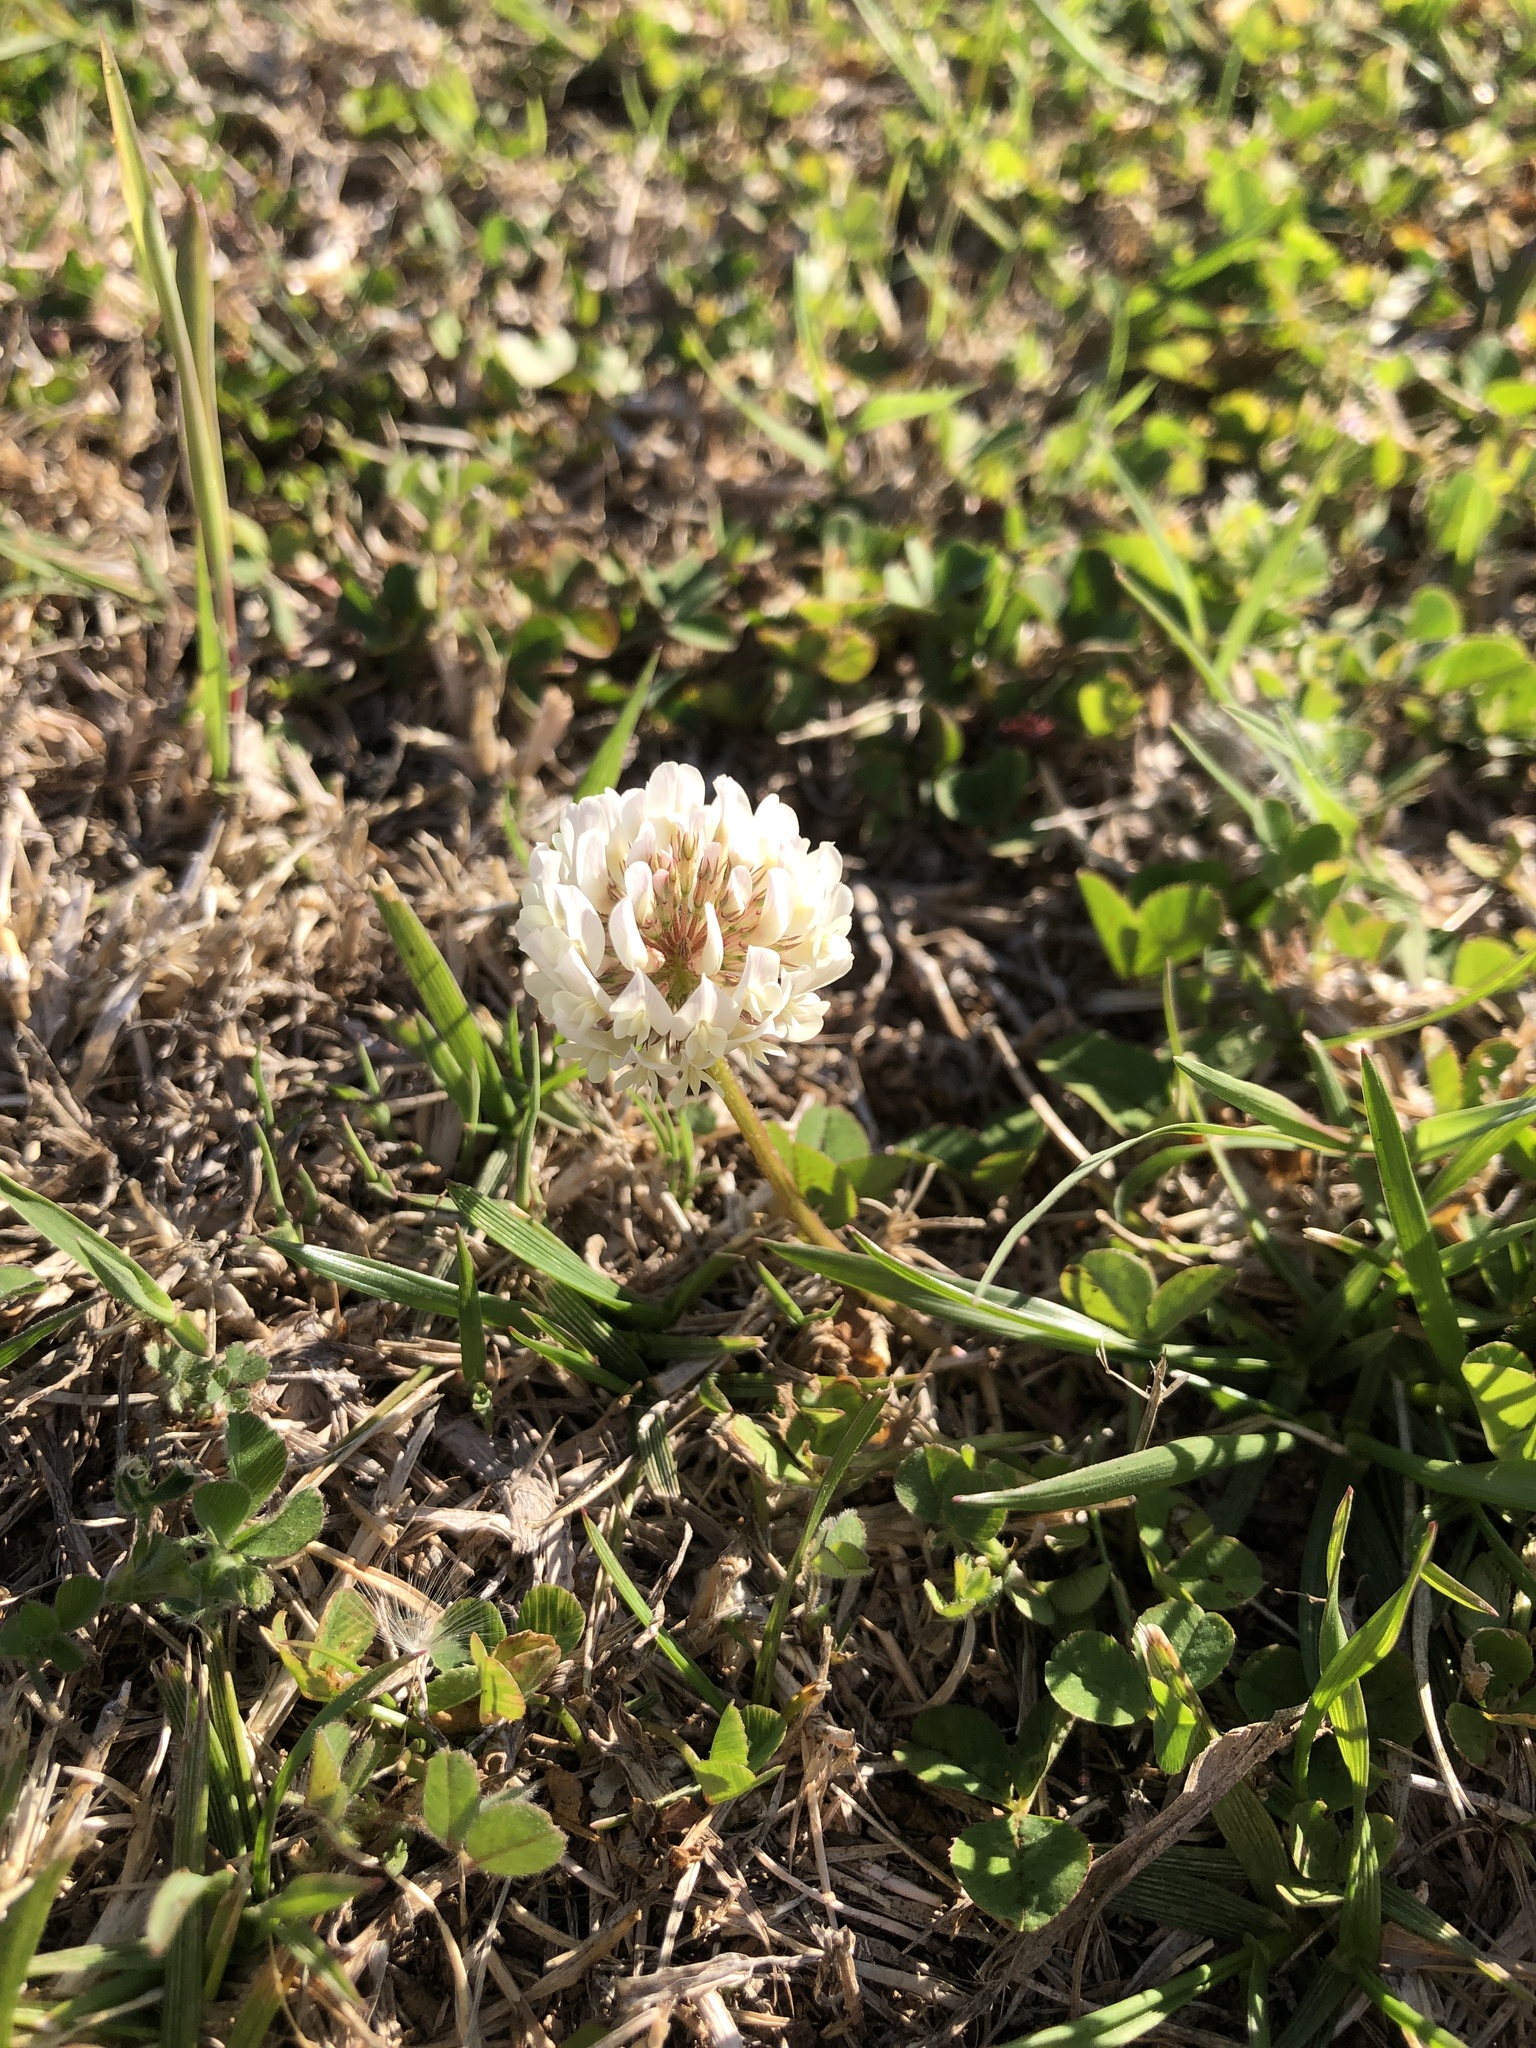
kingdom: Plantae
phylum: Tracheophyta
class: Magnoliopsida
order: Fabales
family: Fabaceae
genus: Trifolium
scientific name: Trifolium repens
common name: White clover
